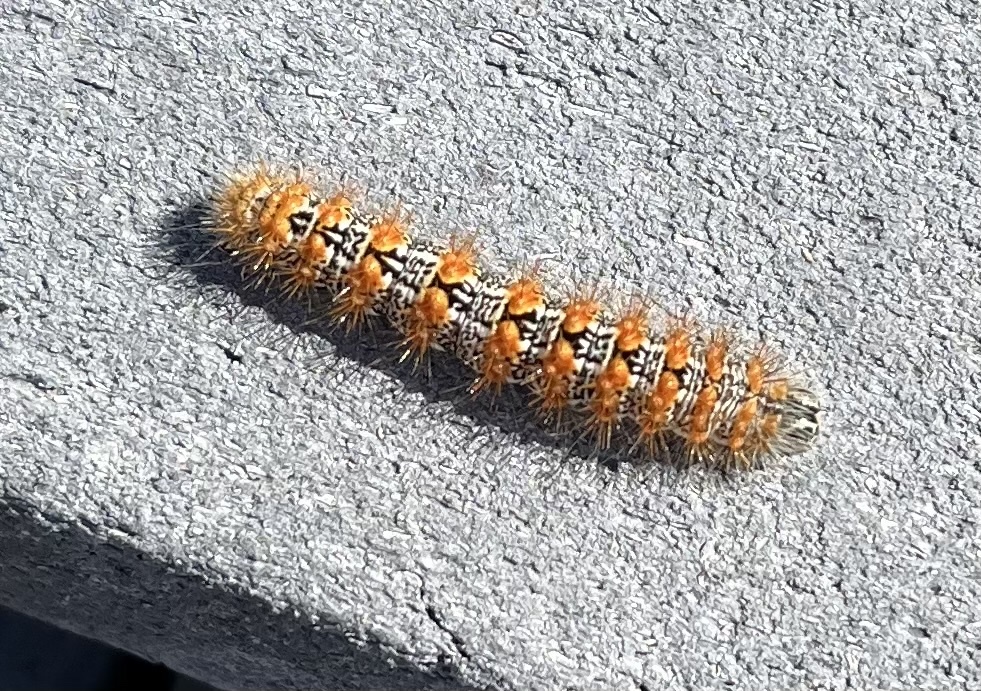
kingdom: Animalia
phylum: Arthropoda
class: Insecta
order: Lepidoptera
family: Noctuidae
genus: Acronicta
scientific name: Acronicta insularis
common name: Henry's marsh moth
